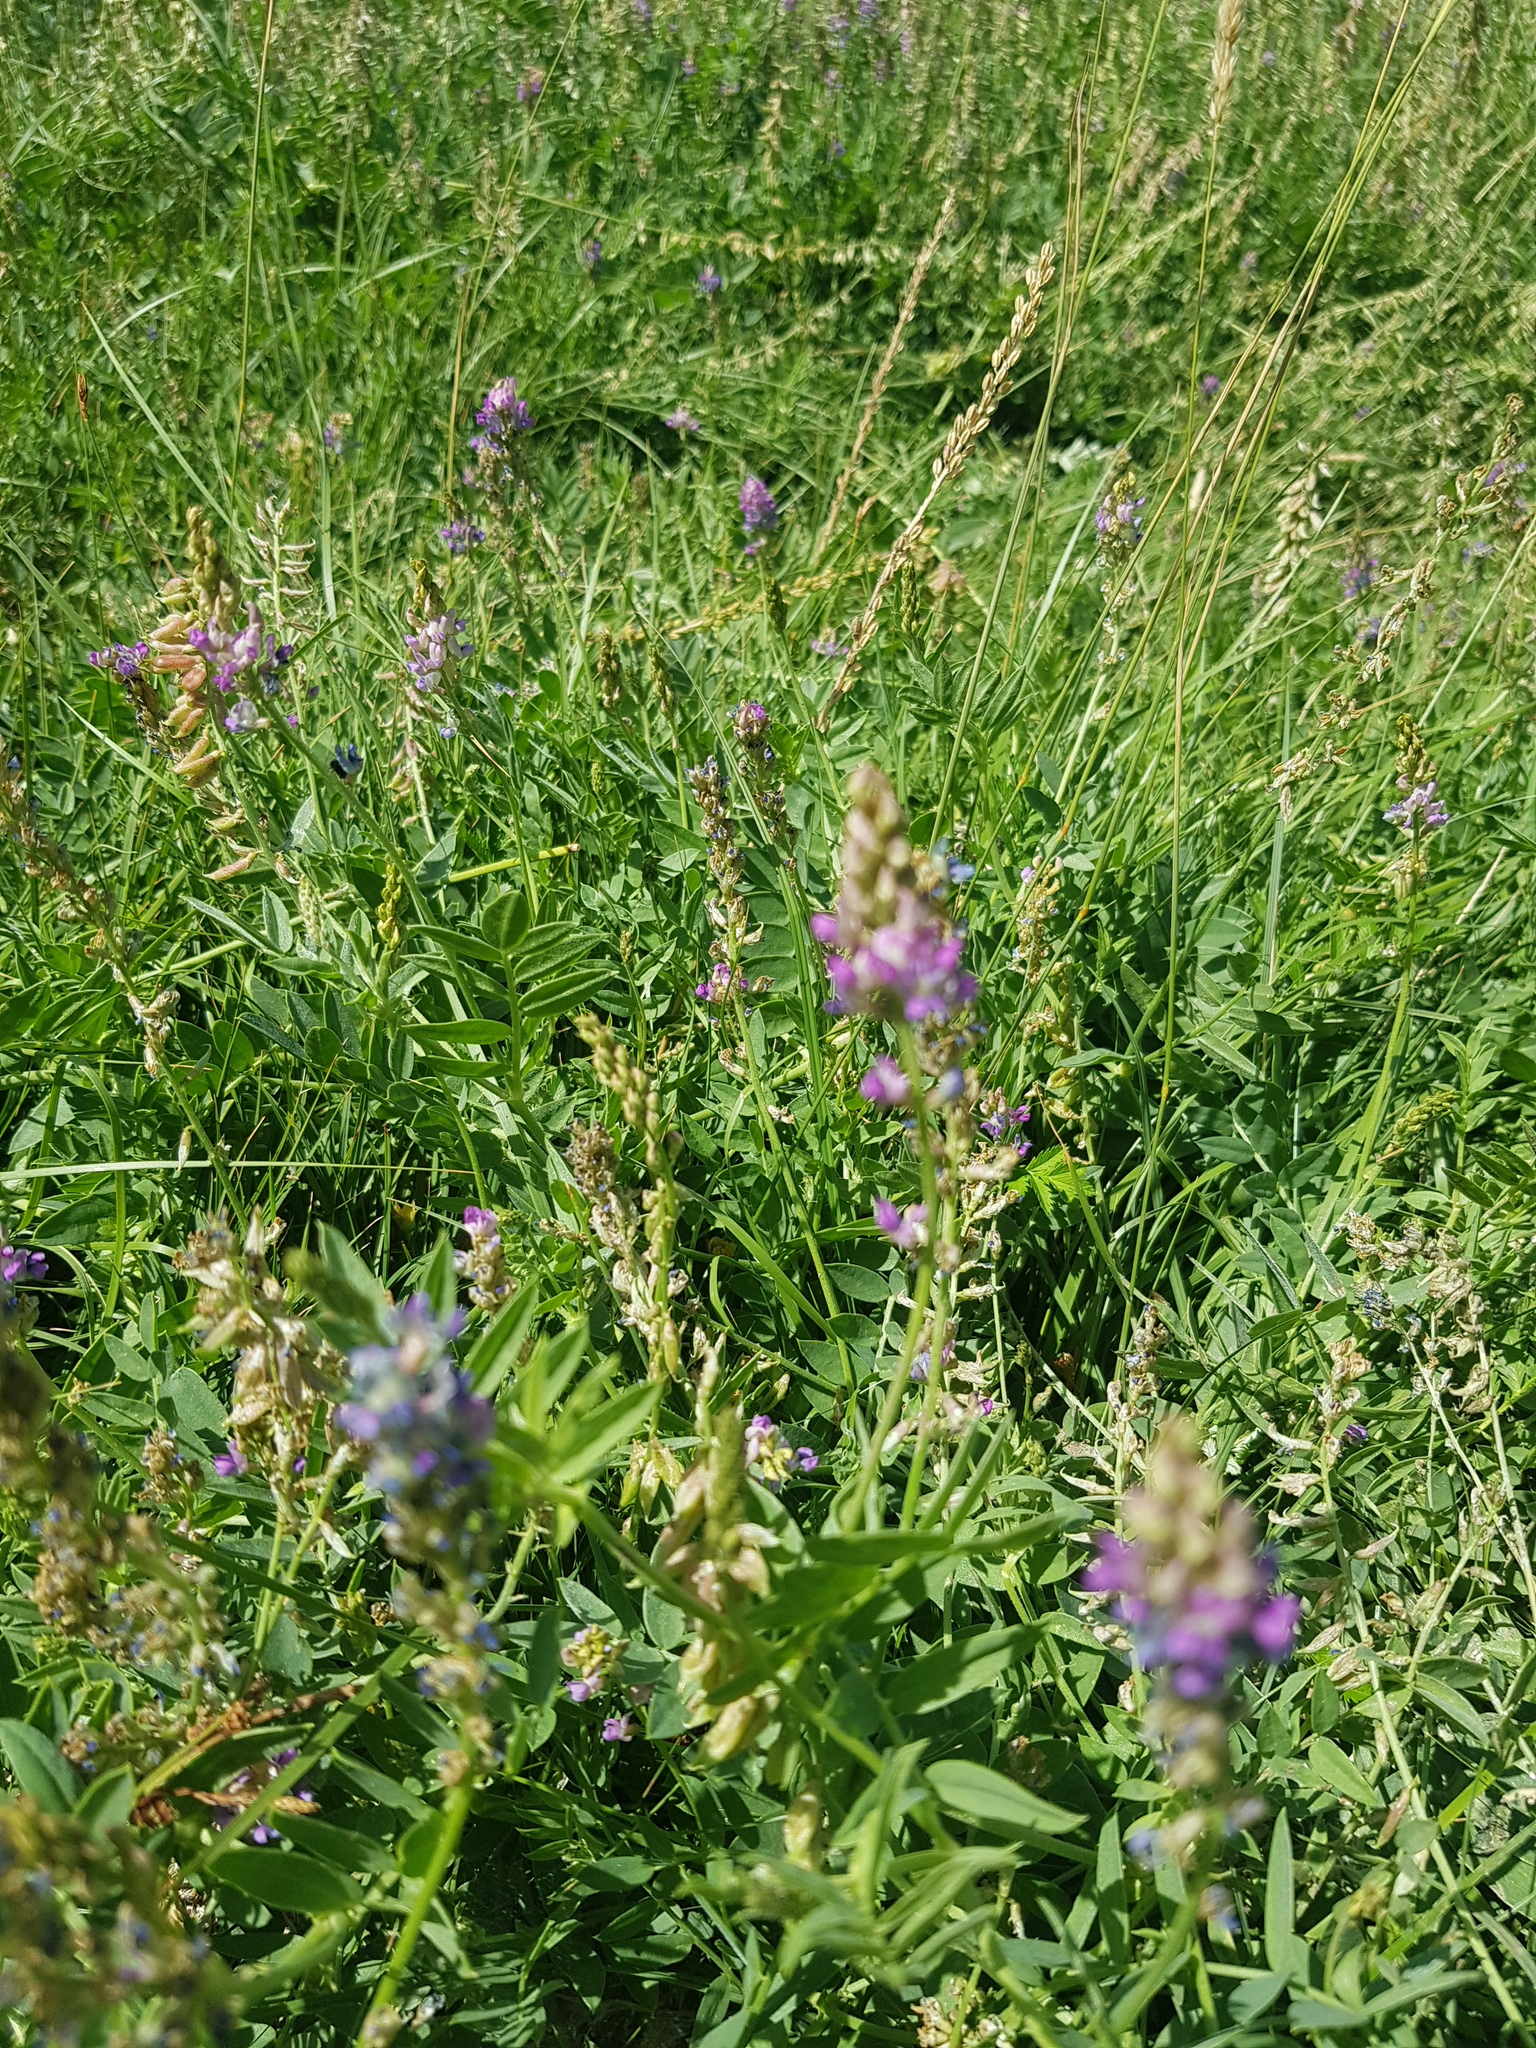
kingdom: Plantae
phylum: Tracheophyta
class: Magnoliopsida
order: Fabales
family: Fabaceae
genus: Oxytropis
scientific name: Oxytropis glabra
